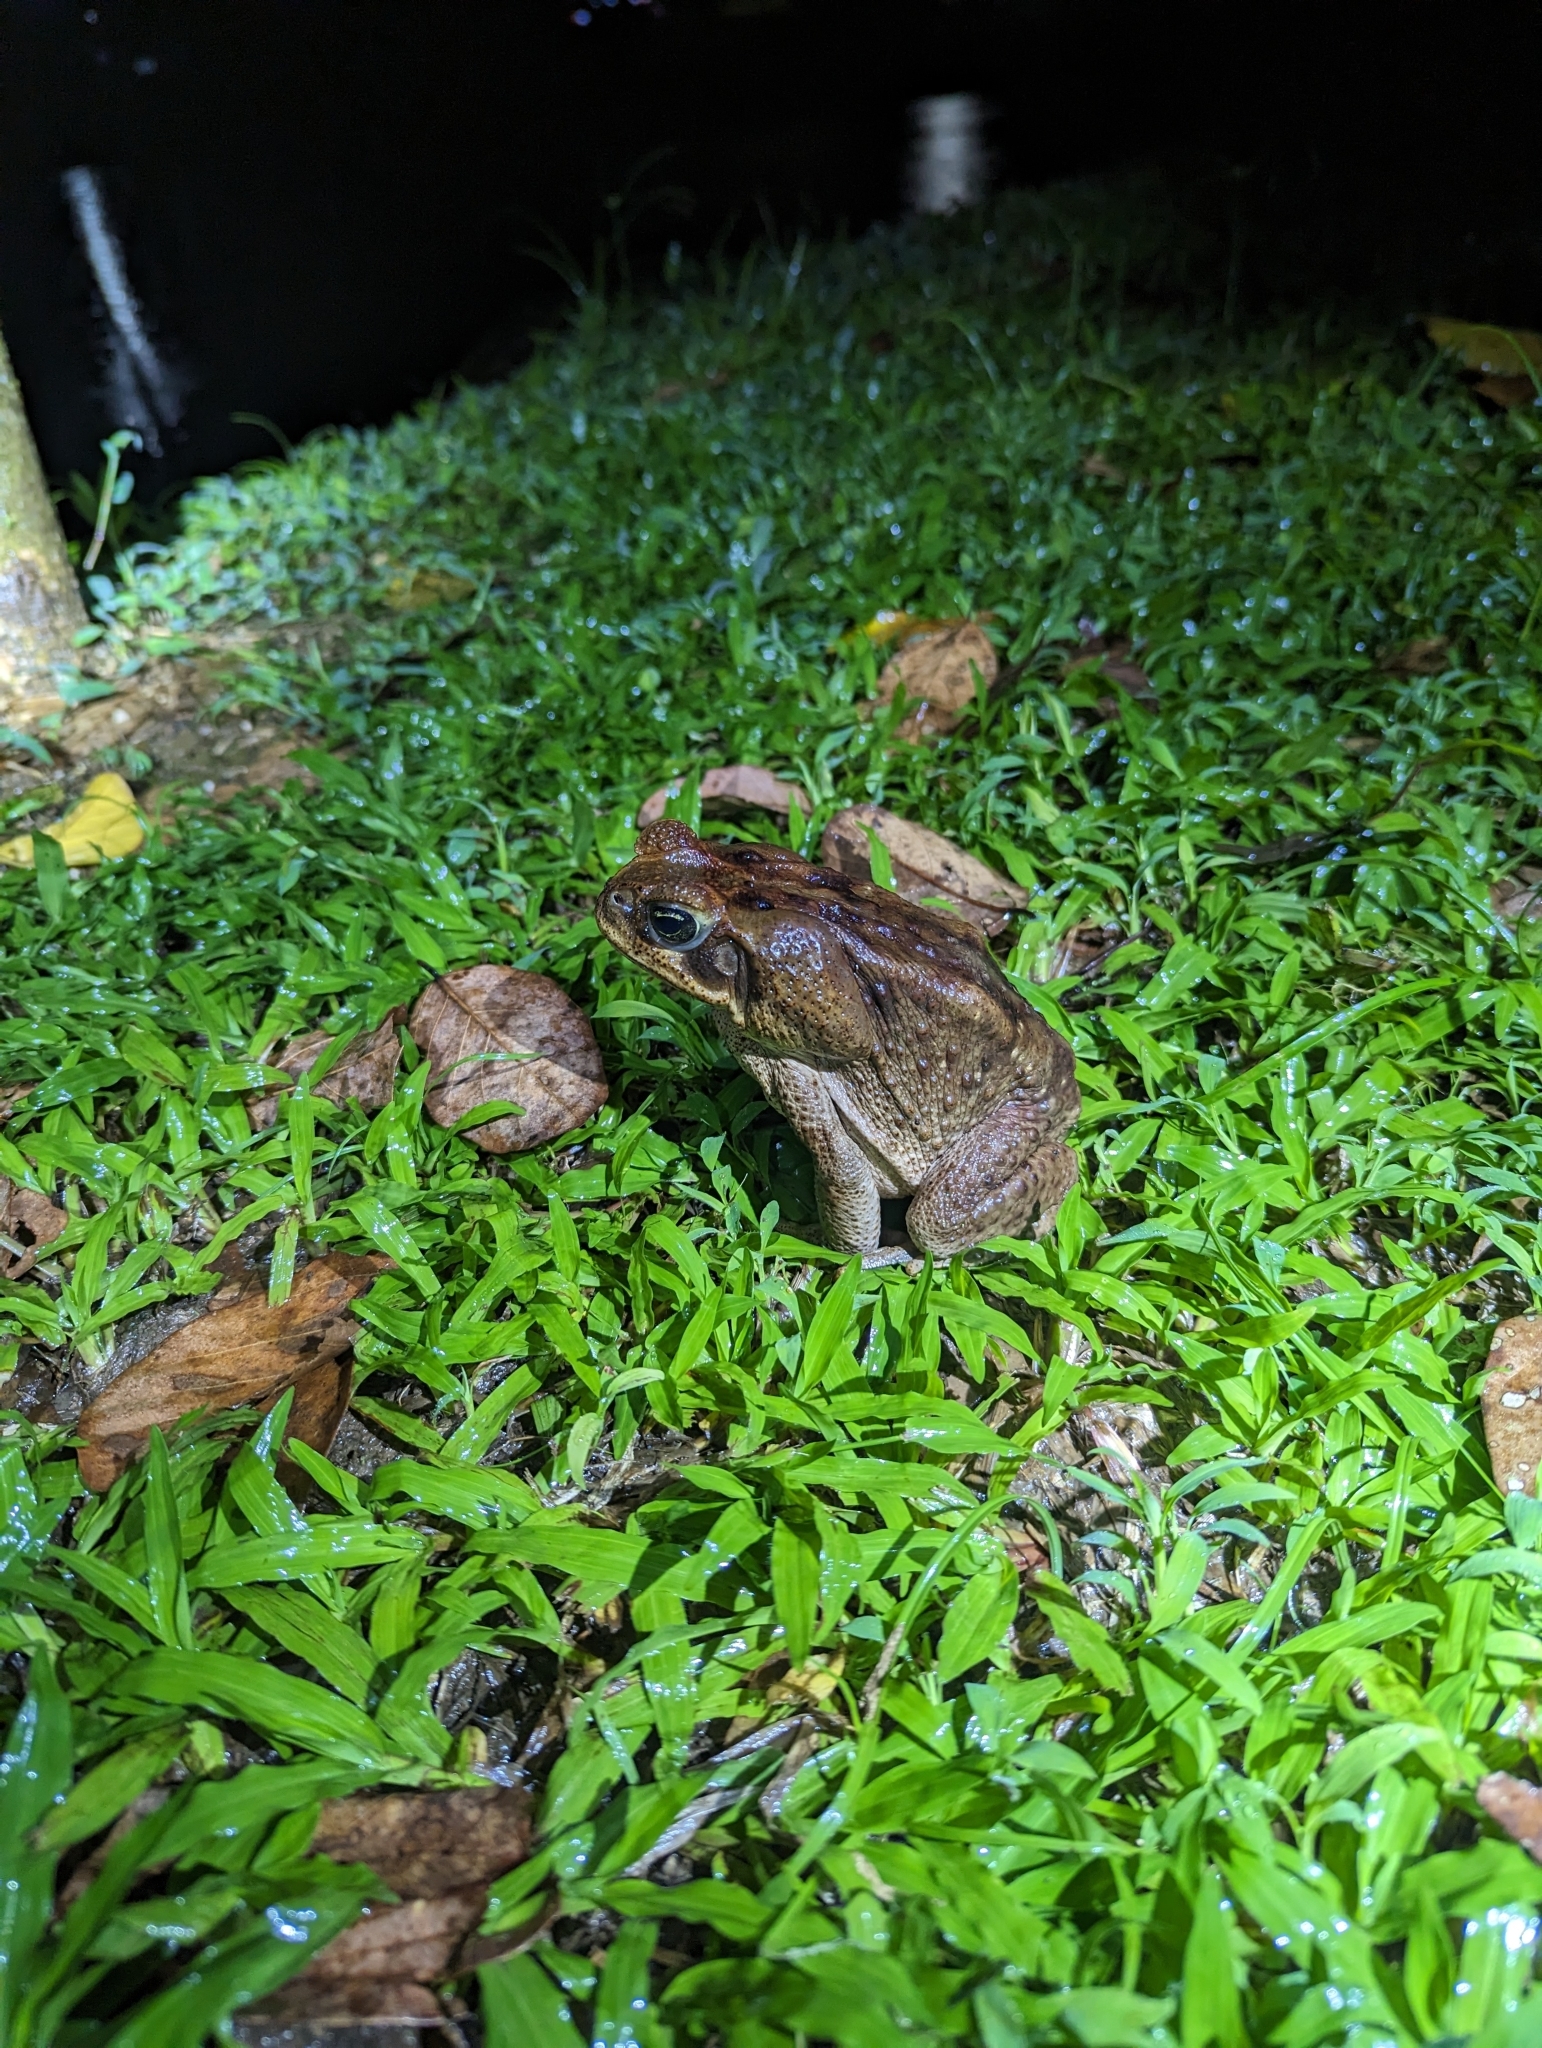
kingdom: Animalia
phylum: Chordata
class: Amphibia
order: Anura
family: Bufonidae
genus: Rhinella
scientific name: Rhinella horribilis
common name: Mesoamerican cane toad
